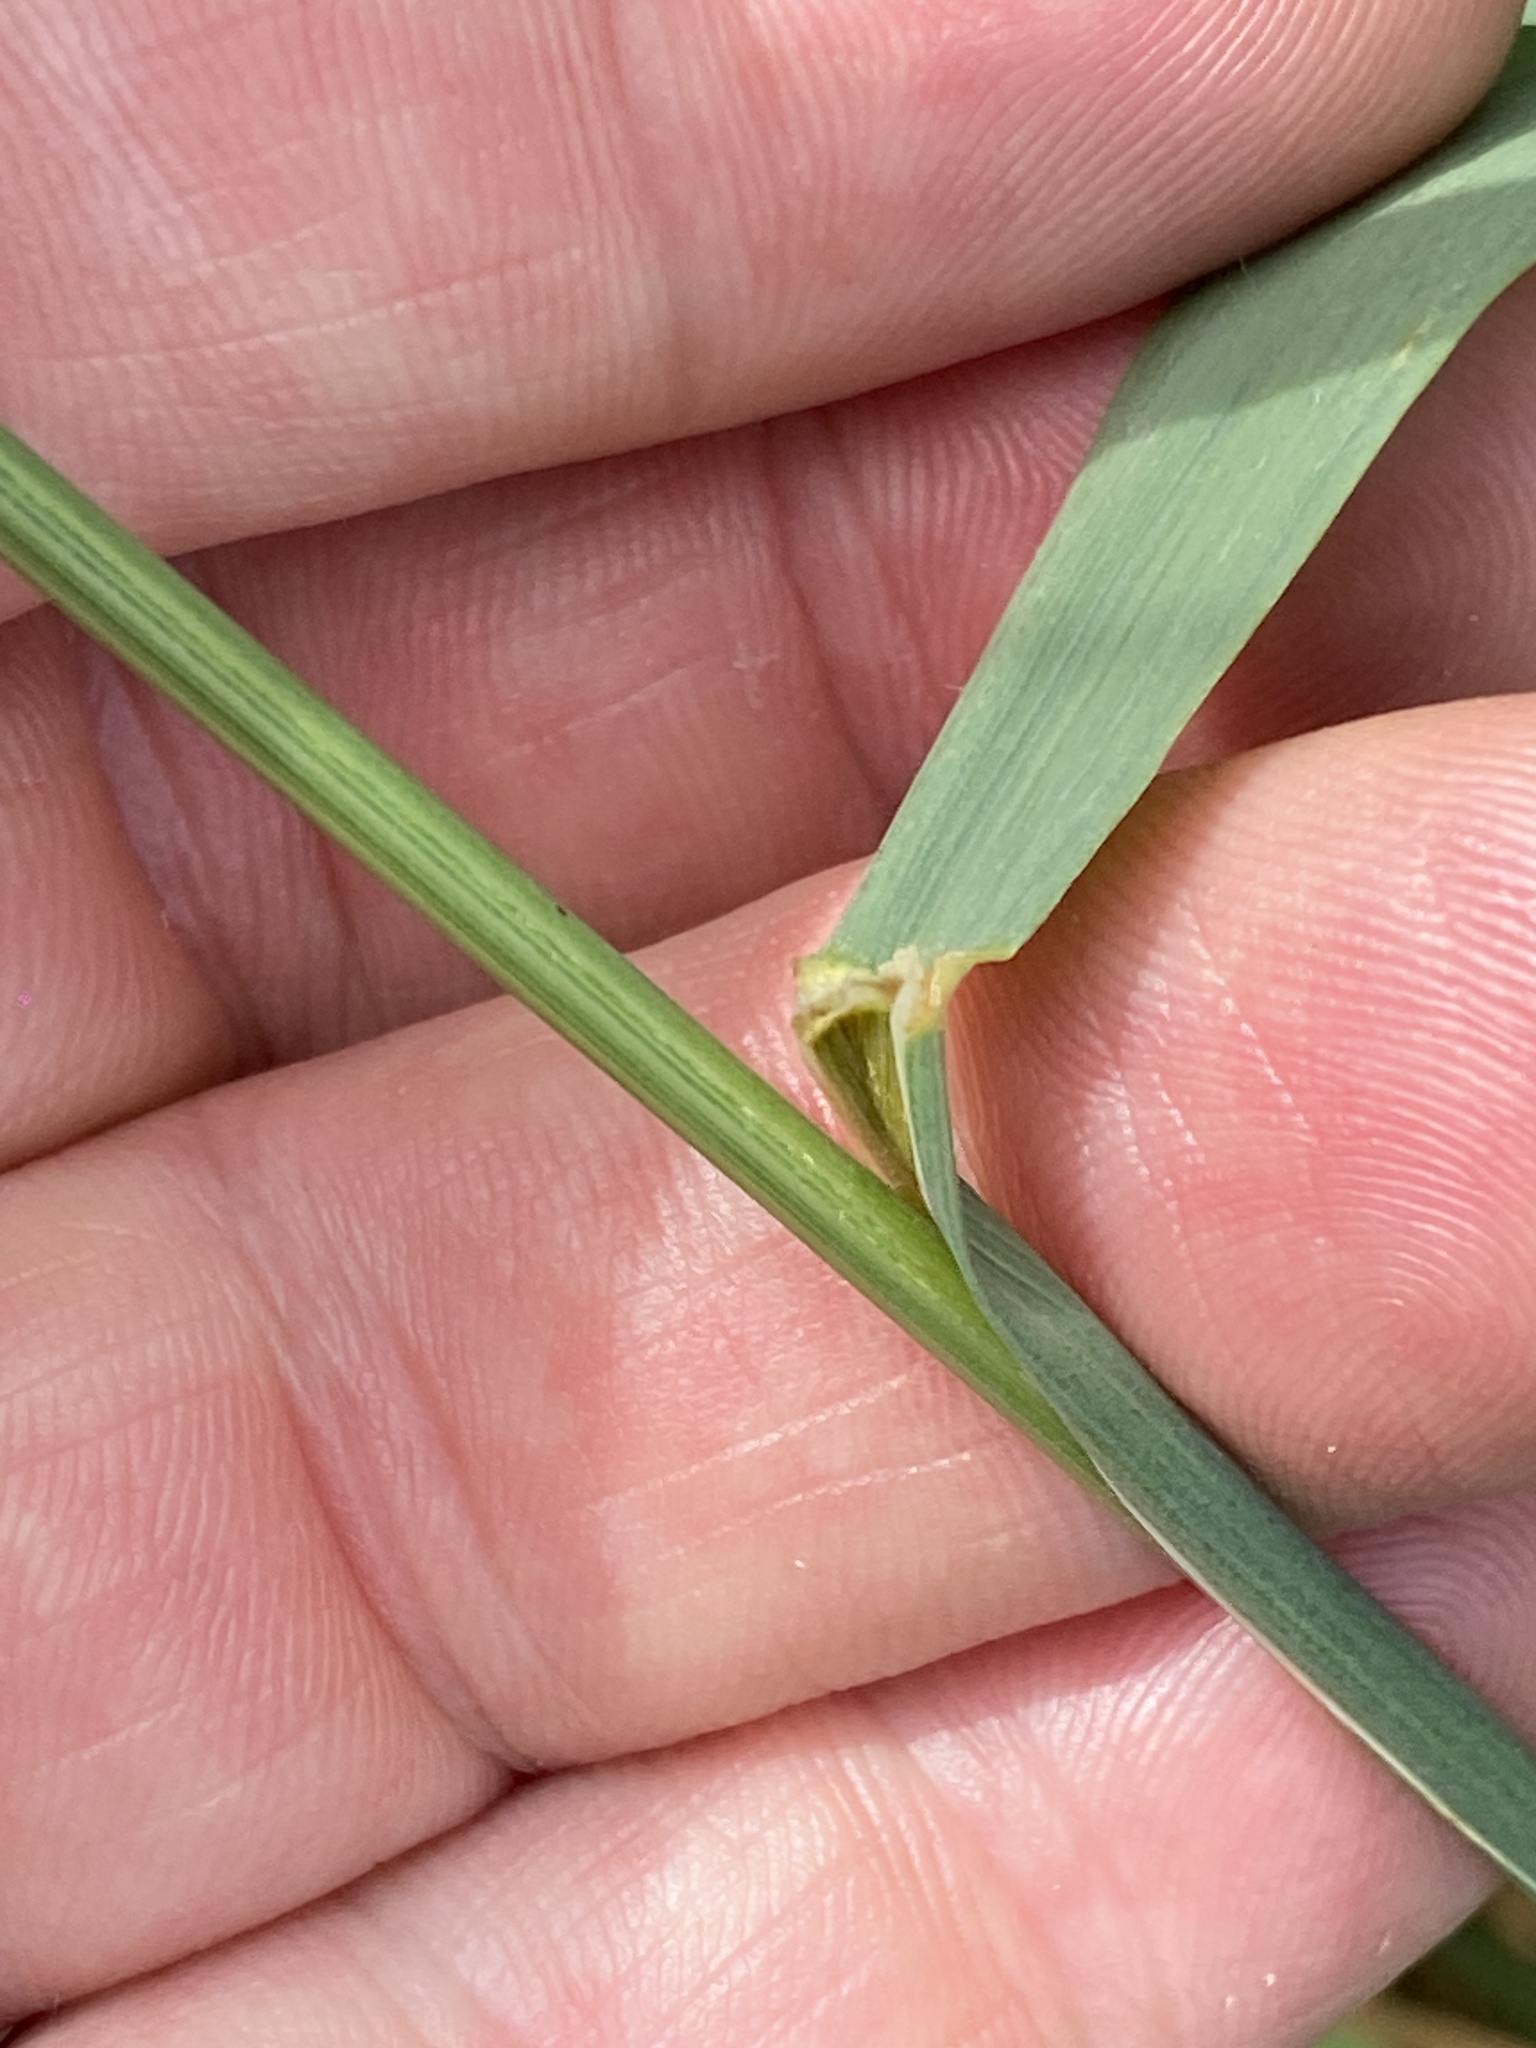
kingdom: Plantae
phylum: Tracheophyta
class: Liliopsida
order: Poales
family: Poaceae
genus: Arrhenatherum
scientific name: Arrhenatherum elatius
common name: Tall oatgrass
